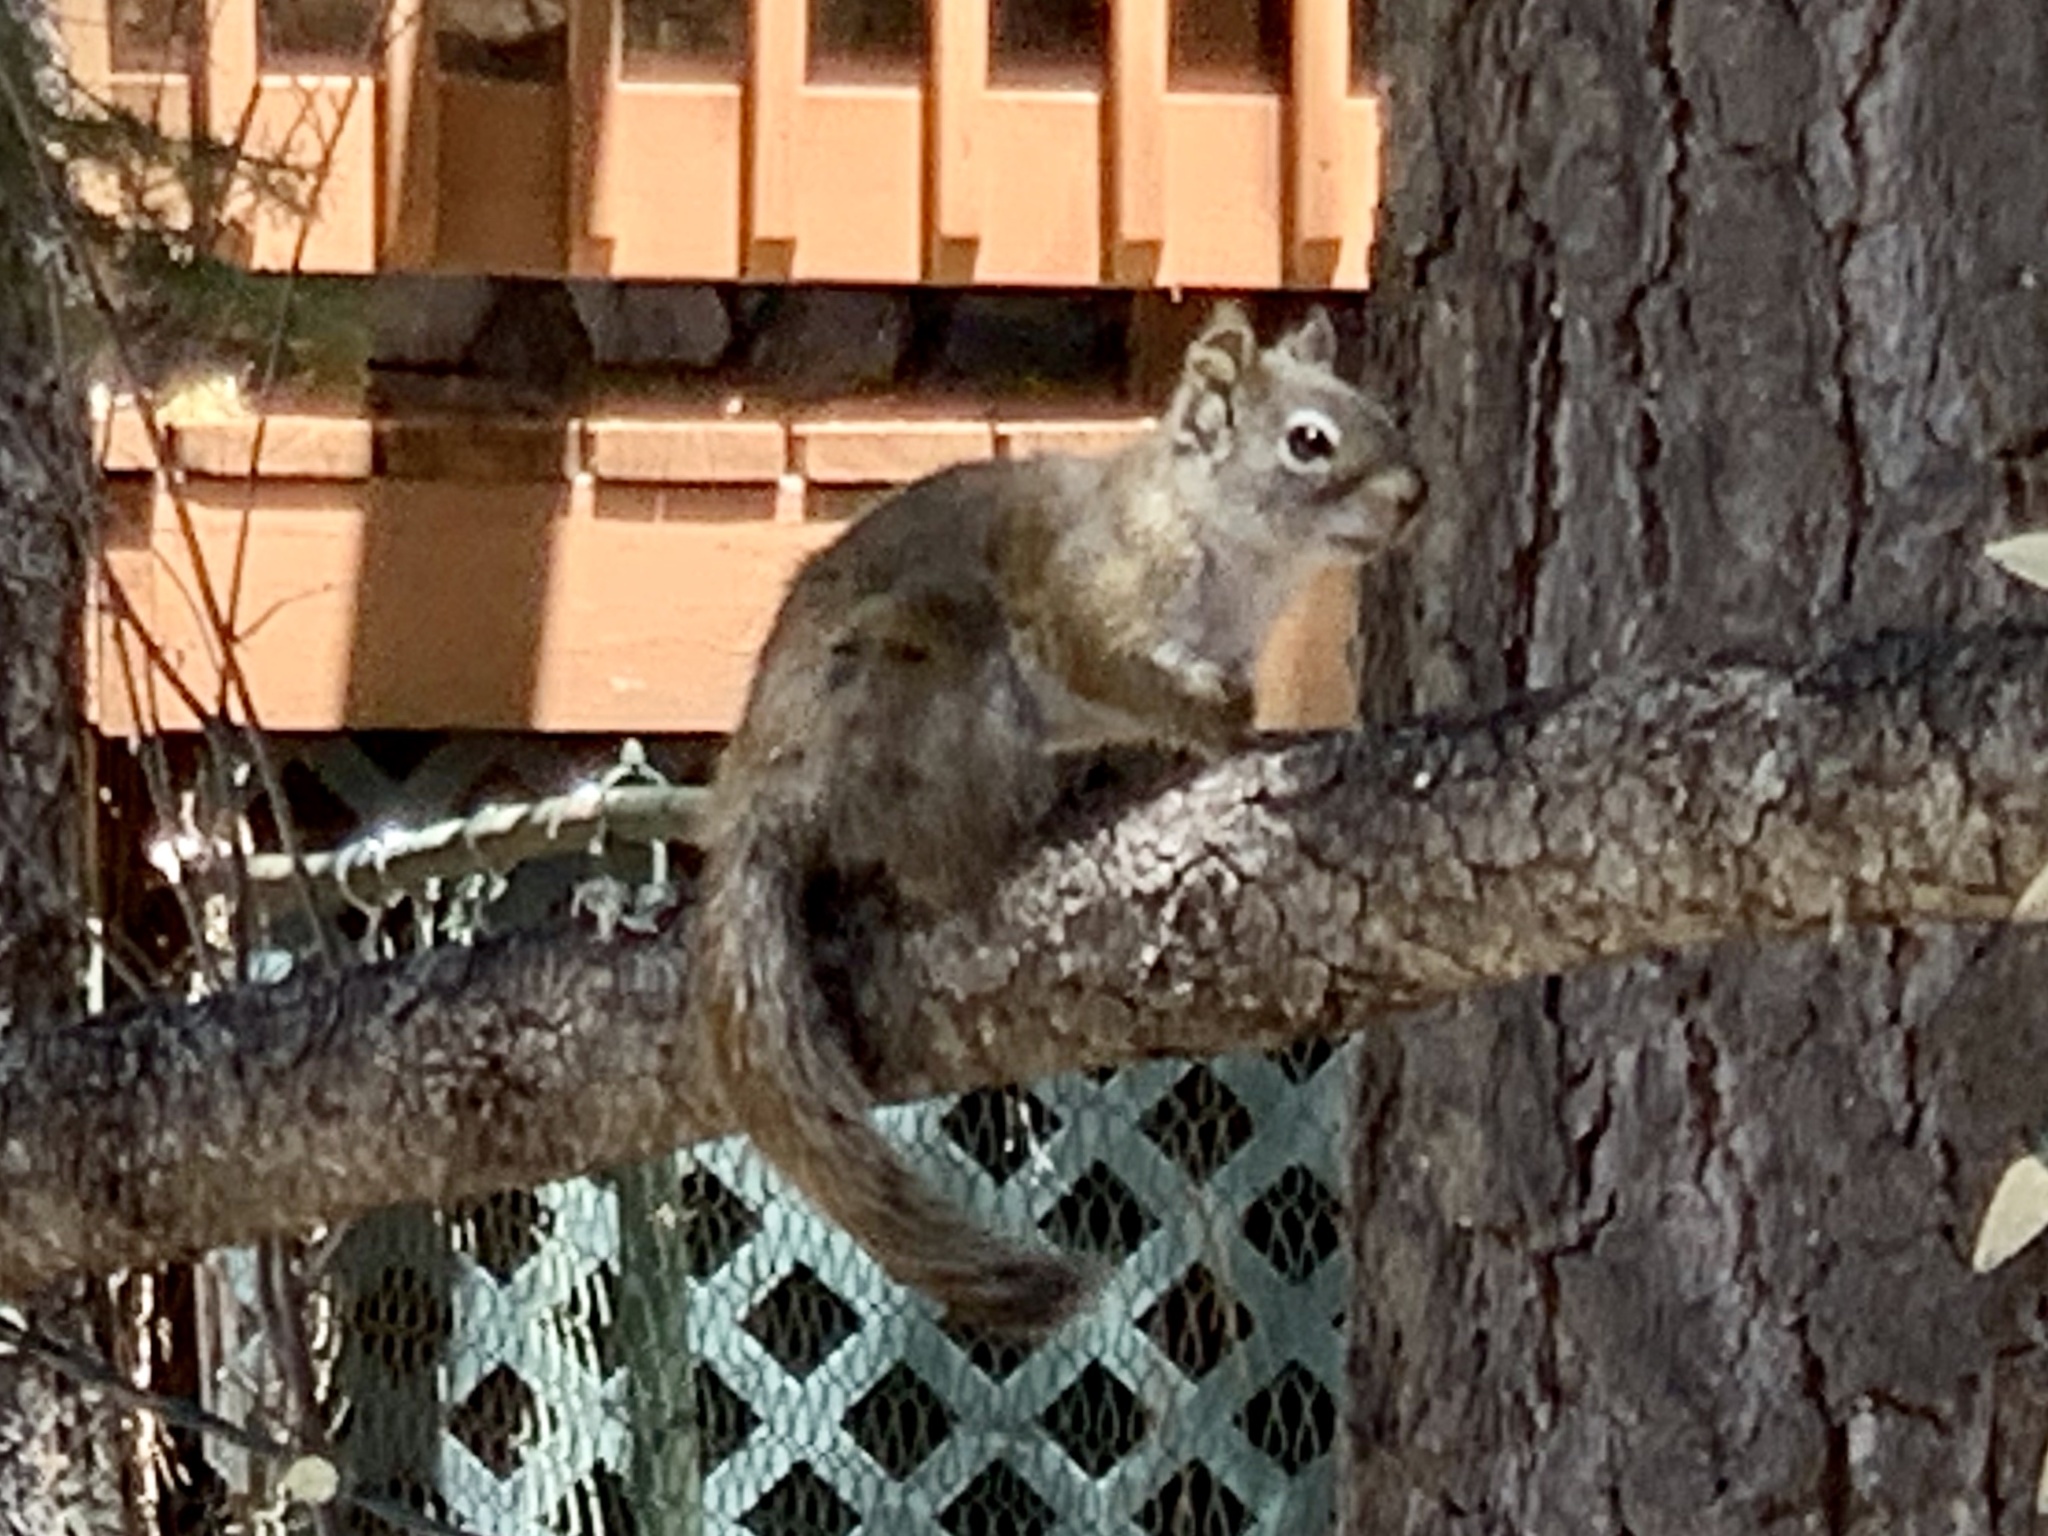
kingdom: Animalia
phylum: Chordata
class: Mammalia
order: Rodentia
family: Sciuridae
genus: Tamiasciurus
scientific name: Tamiasciurus hudsonicus
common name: Red squirrel
